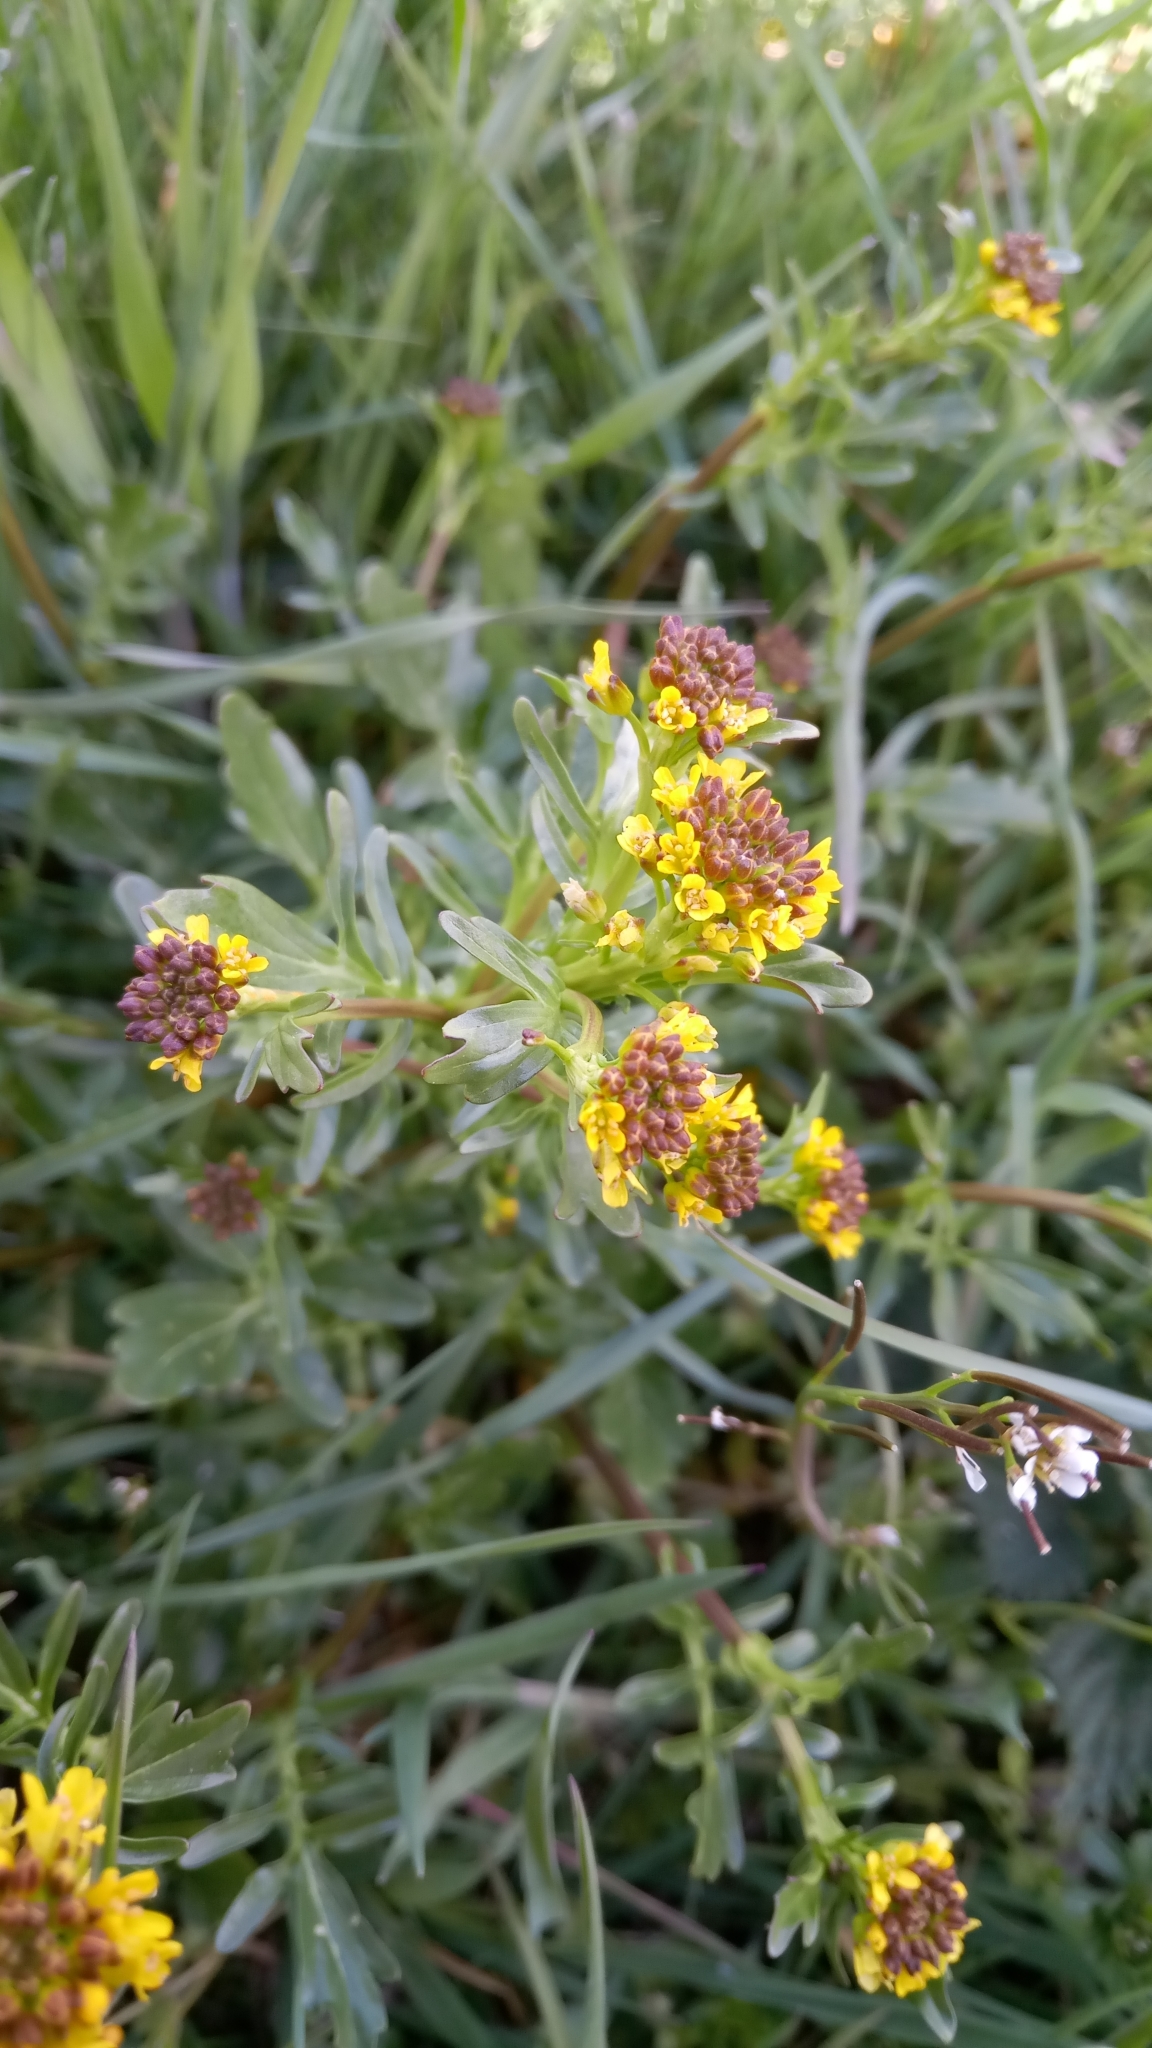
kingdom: Plantae
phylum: Tracheophyta
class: Magnoliopsida
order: Brassicales
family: Brassicaceae
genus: Barbarea
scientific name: Barbarea vulgaris
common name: Cressy-greens
